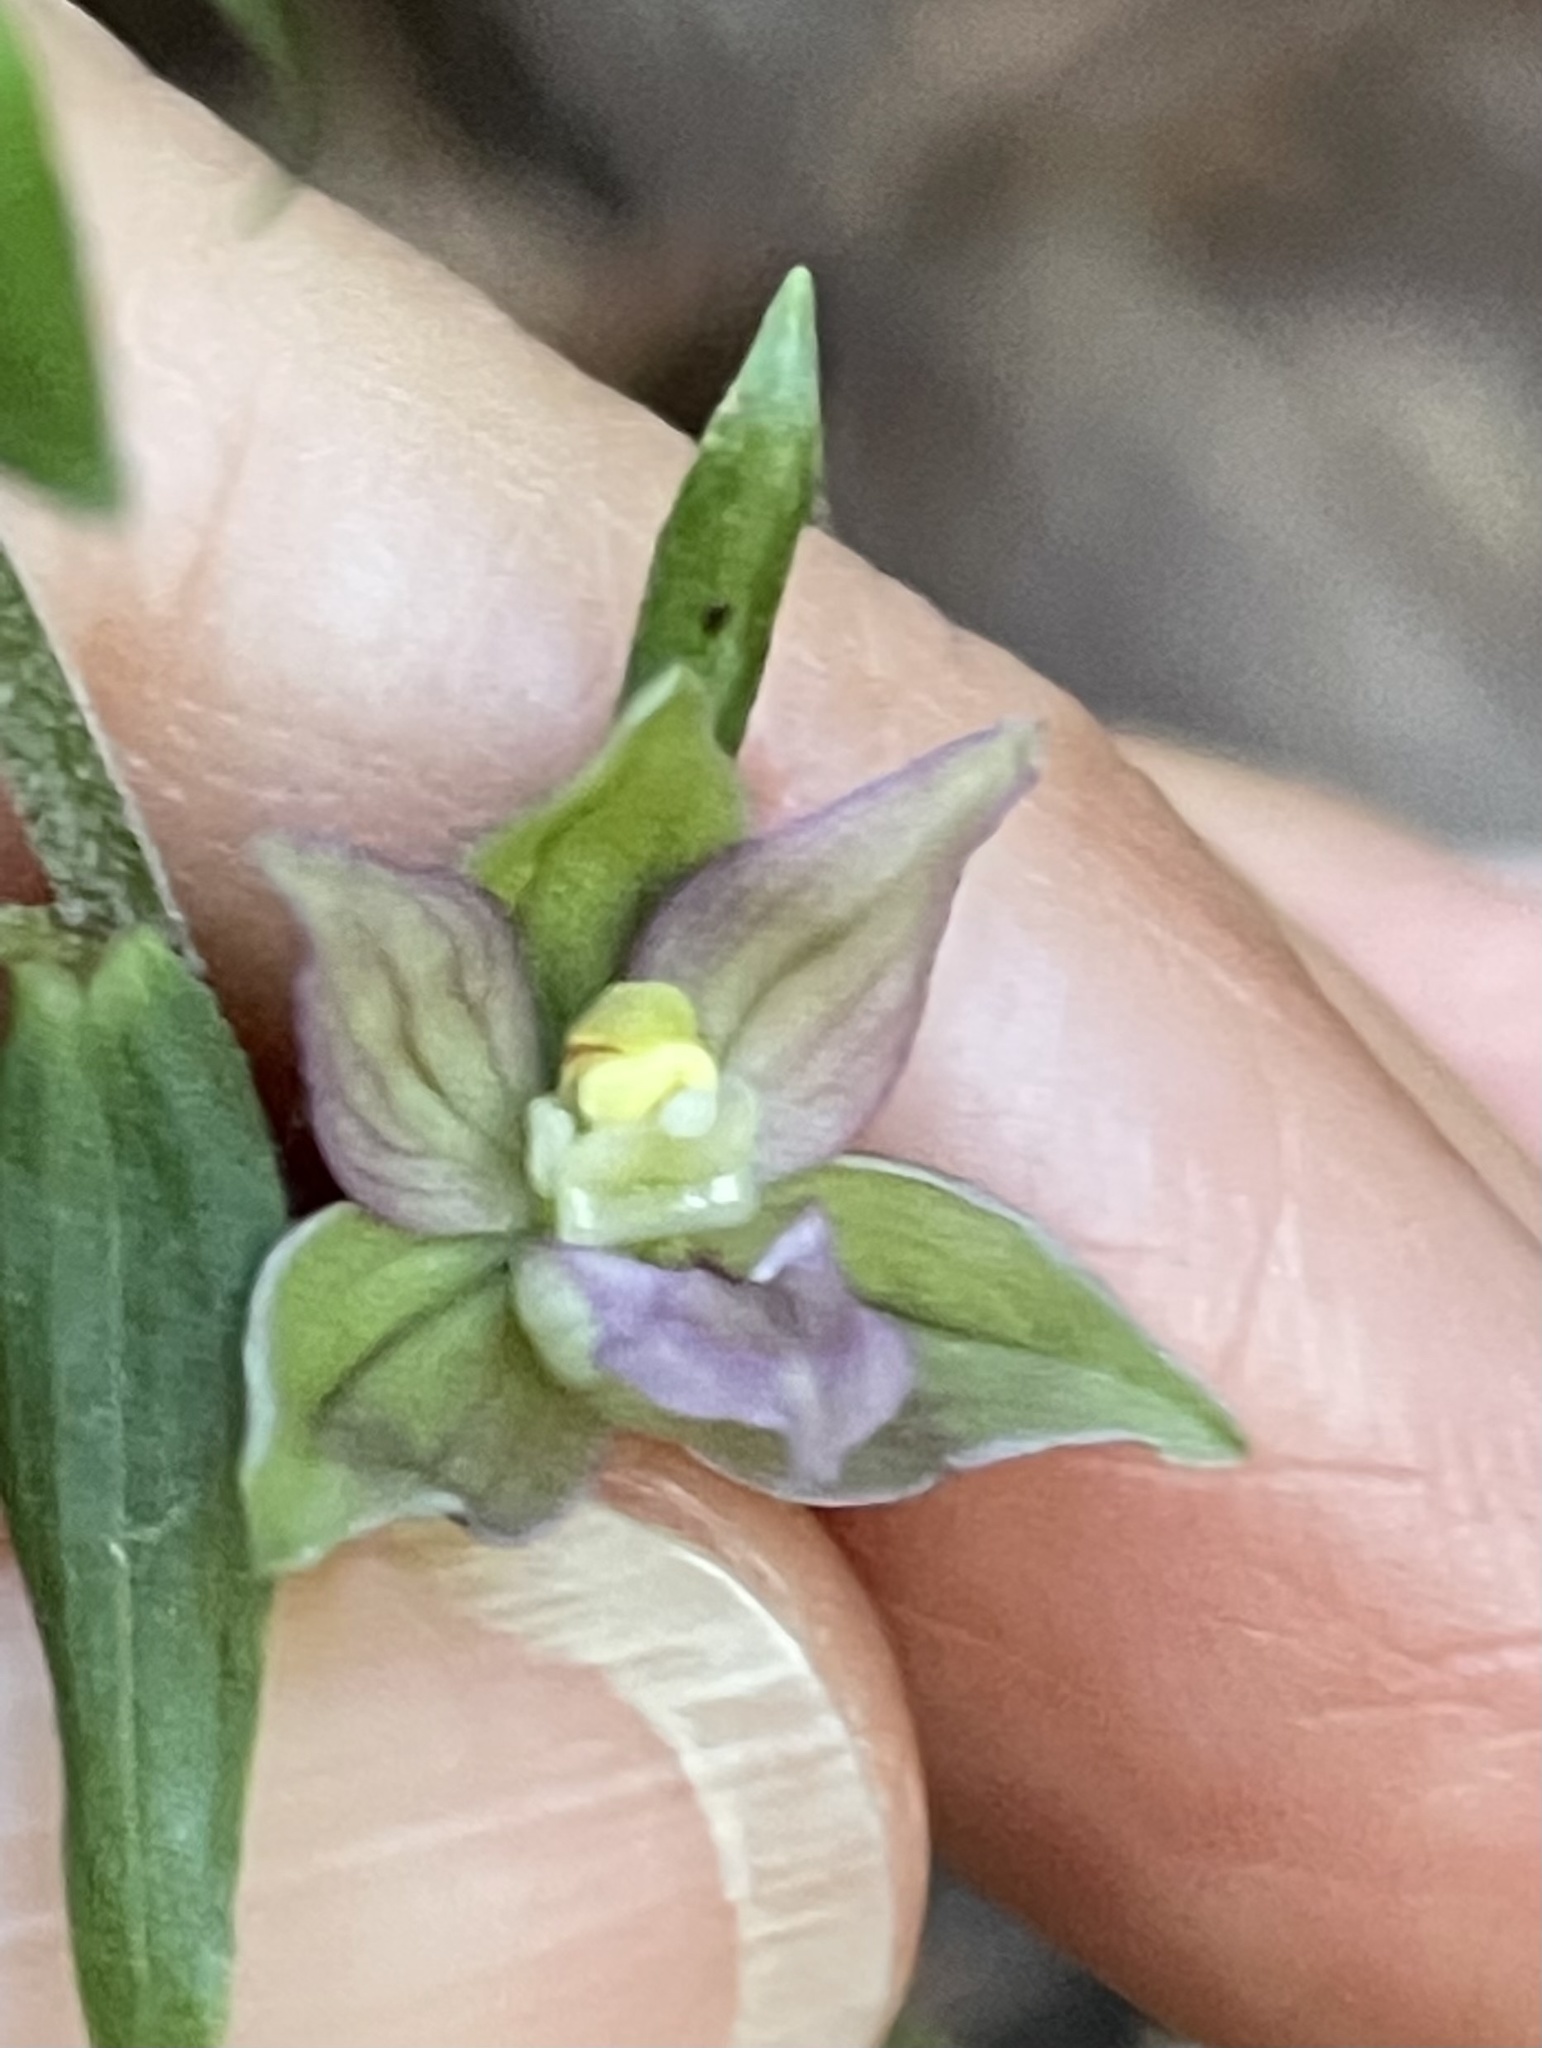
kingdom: Plantae
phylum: Tracheophyta
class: Liliopsida
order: Asparagales
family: Orchidaceae
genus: Epipactis
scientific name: Epipactis helleborine
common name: Broad-leaved helleborine
